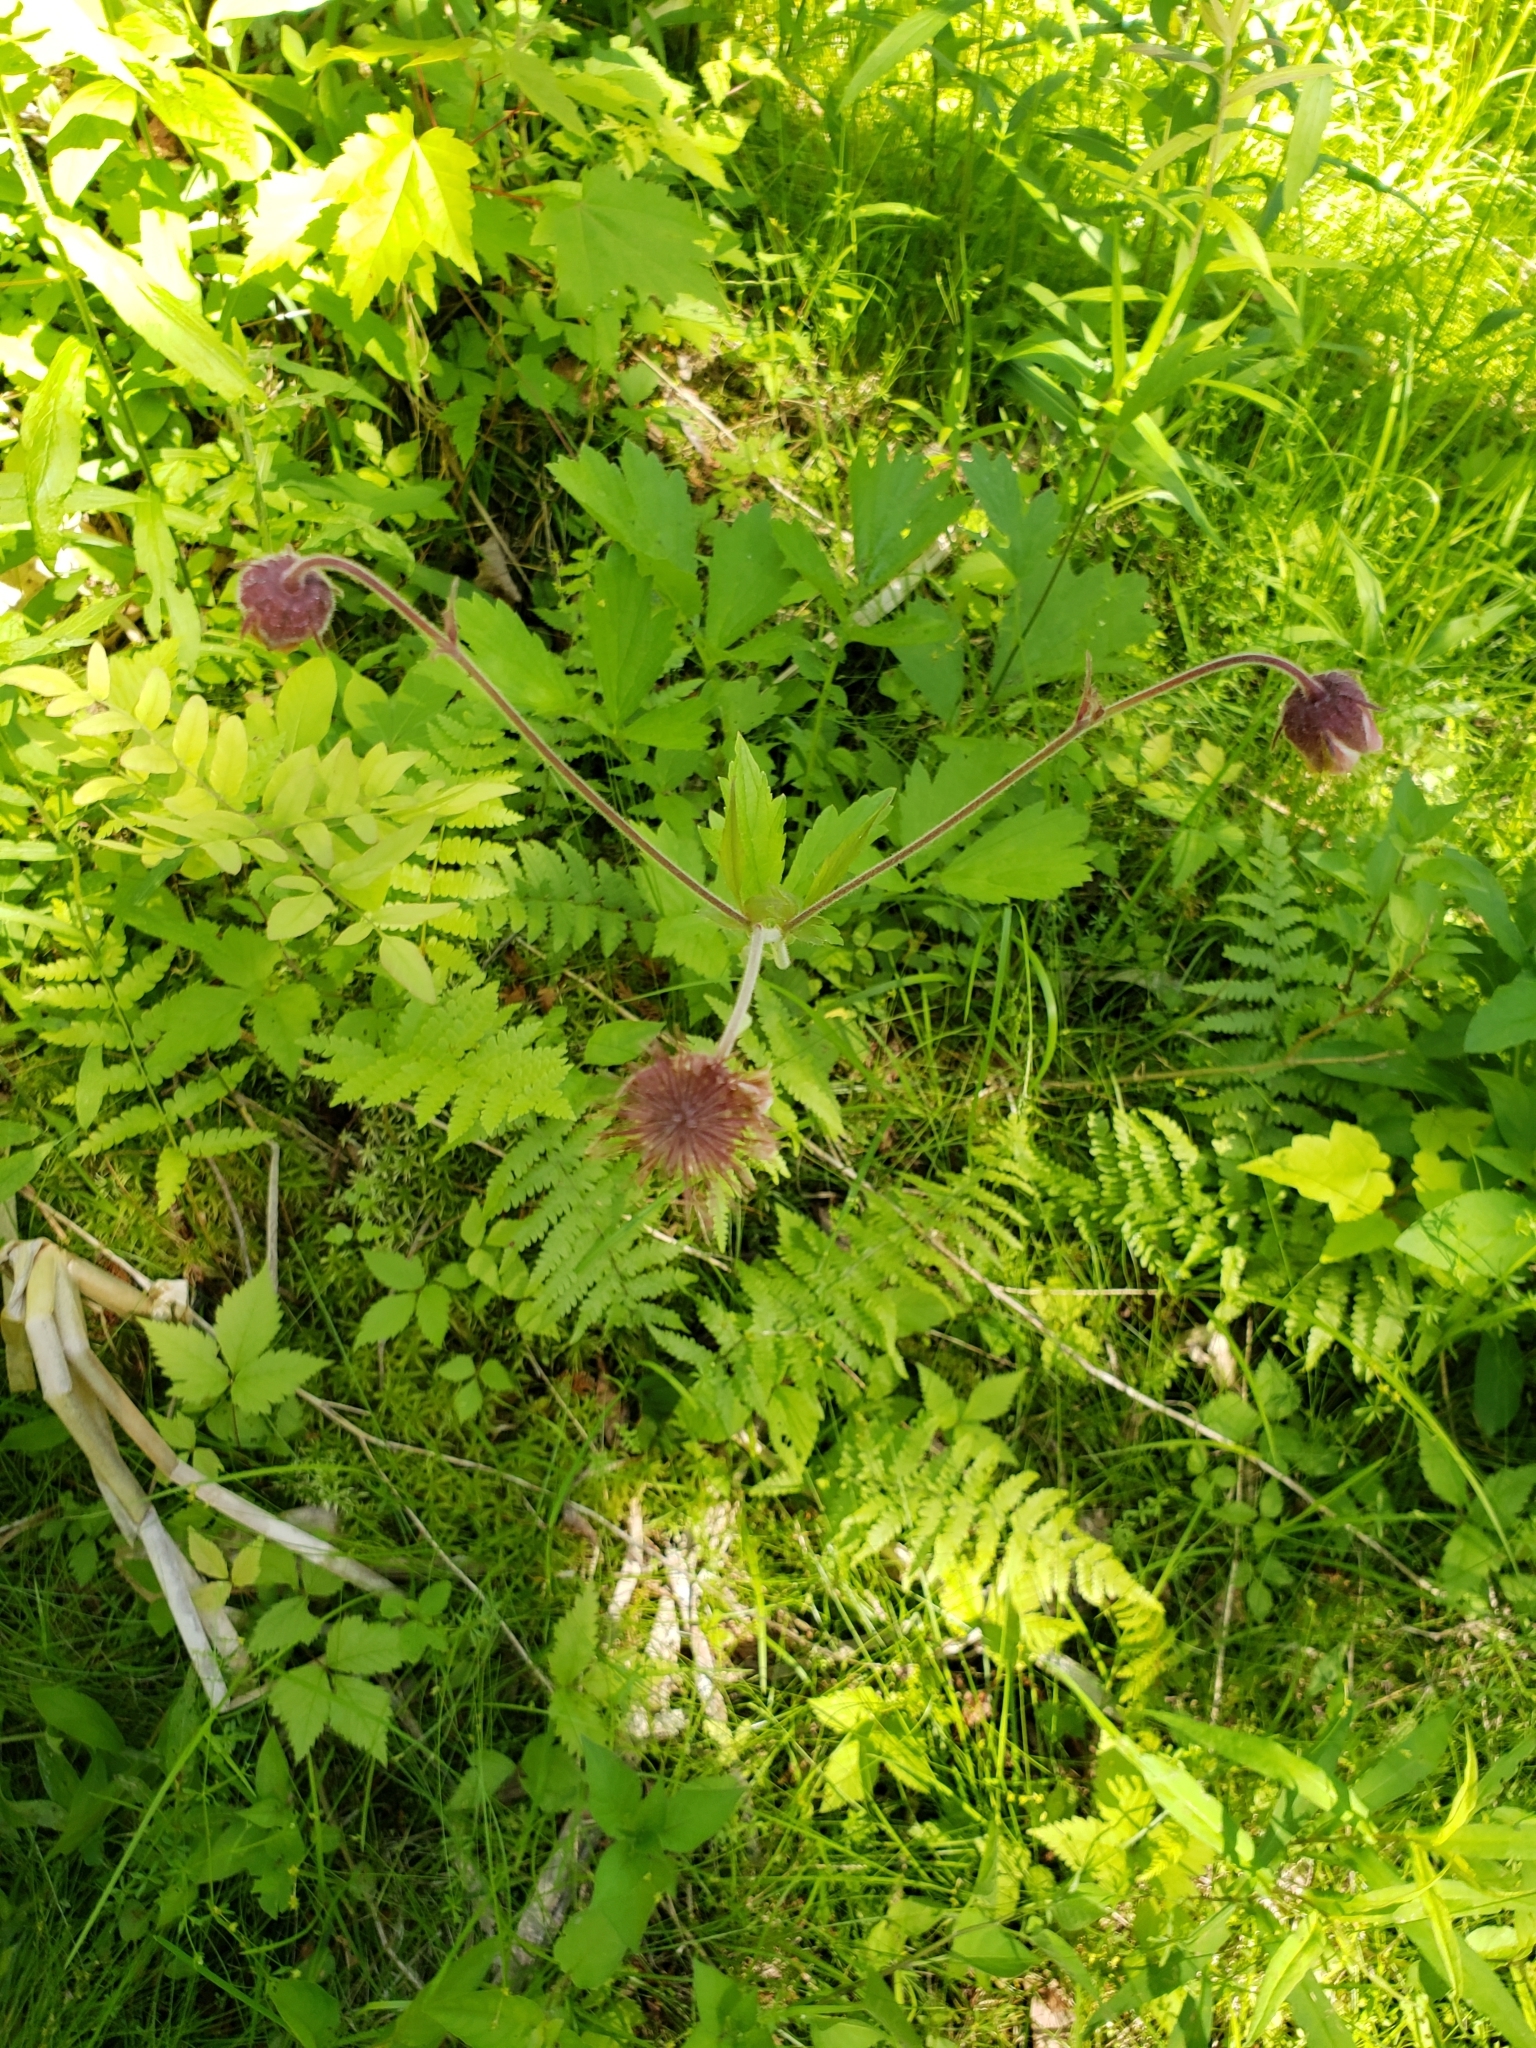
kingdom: Plantae
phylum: Tracheophyta
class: Magnoliopsida
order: Rosales
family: Rosaceae
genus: Geum
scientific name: Geum rivale
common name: Water avens
